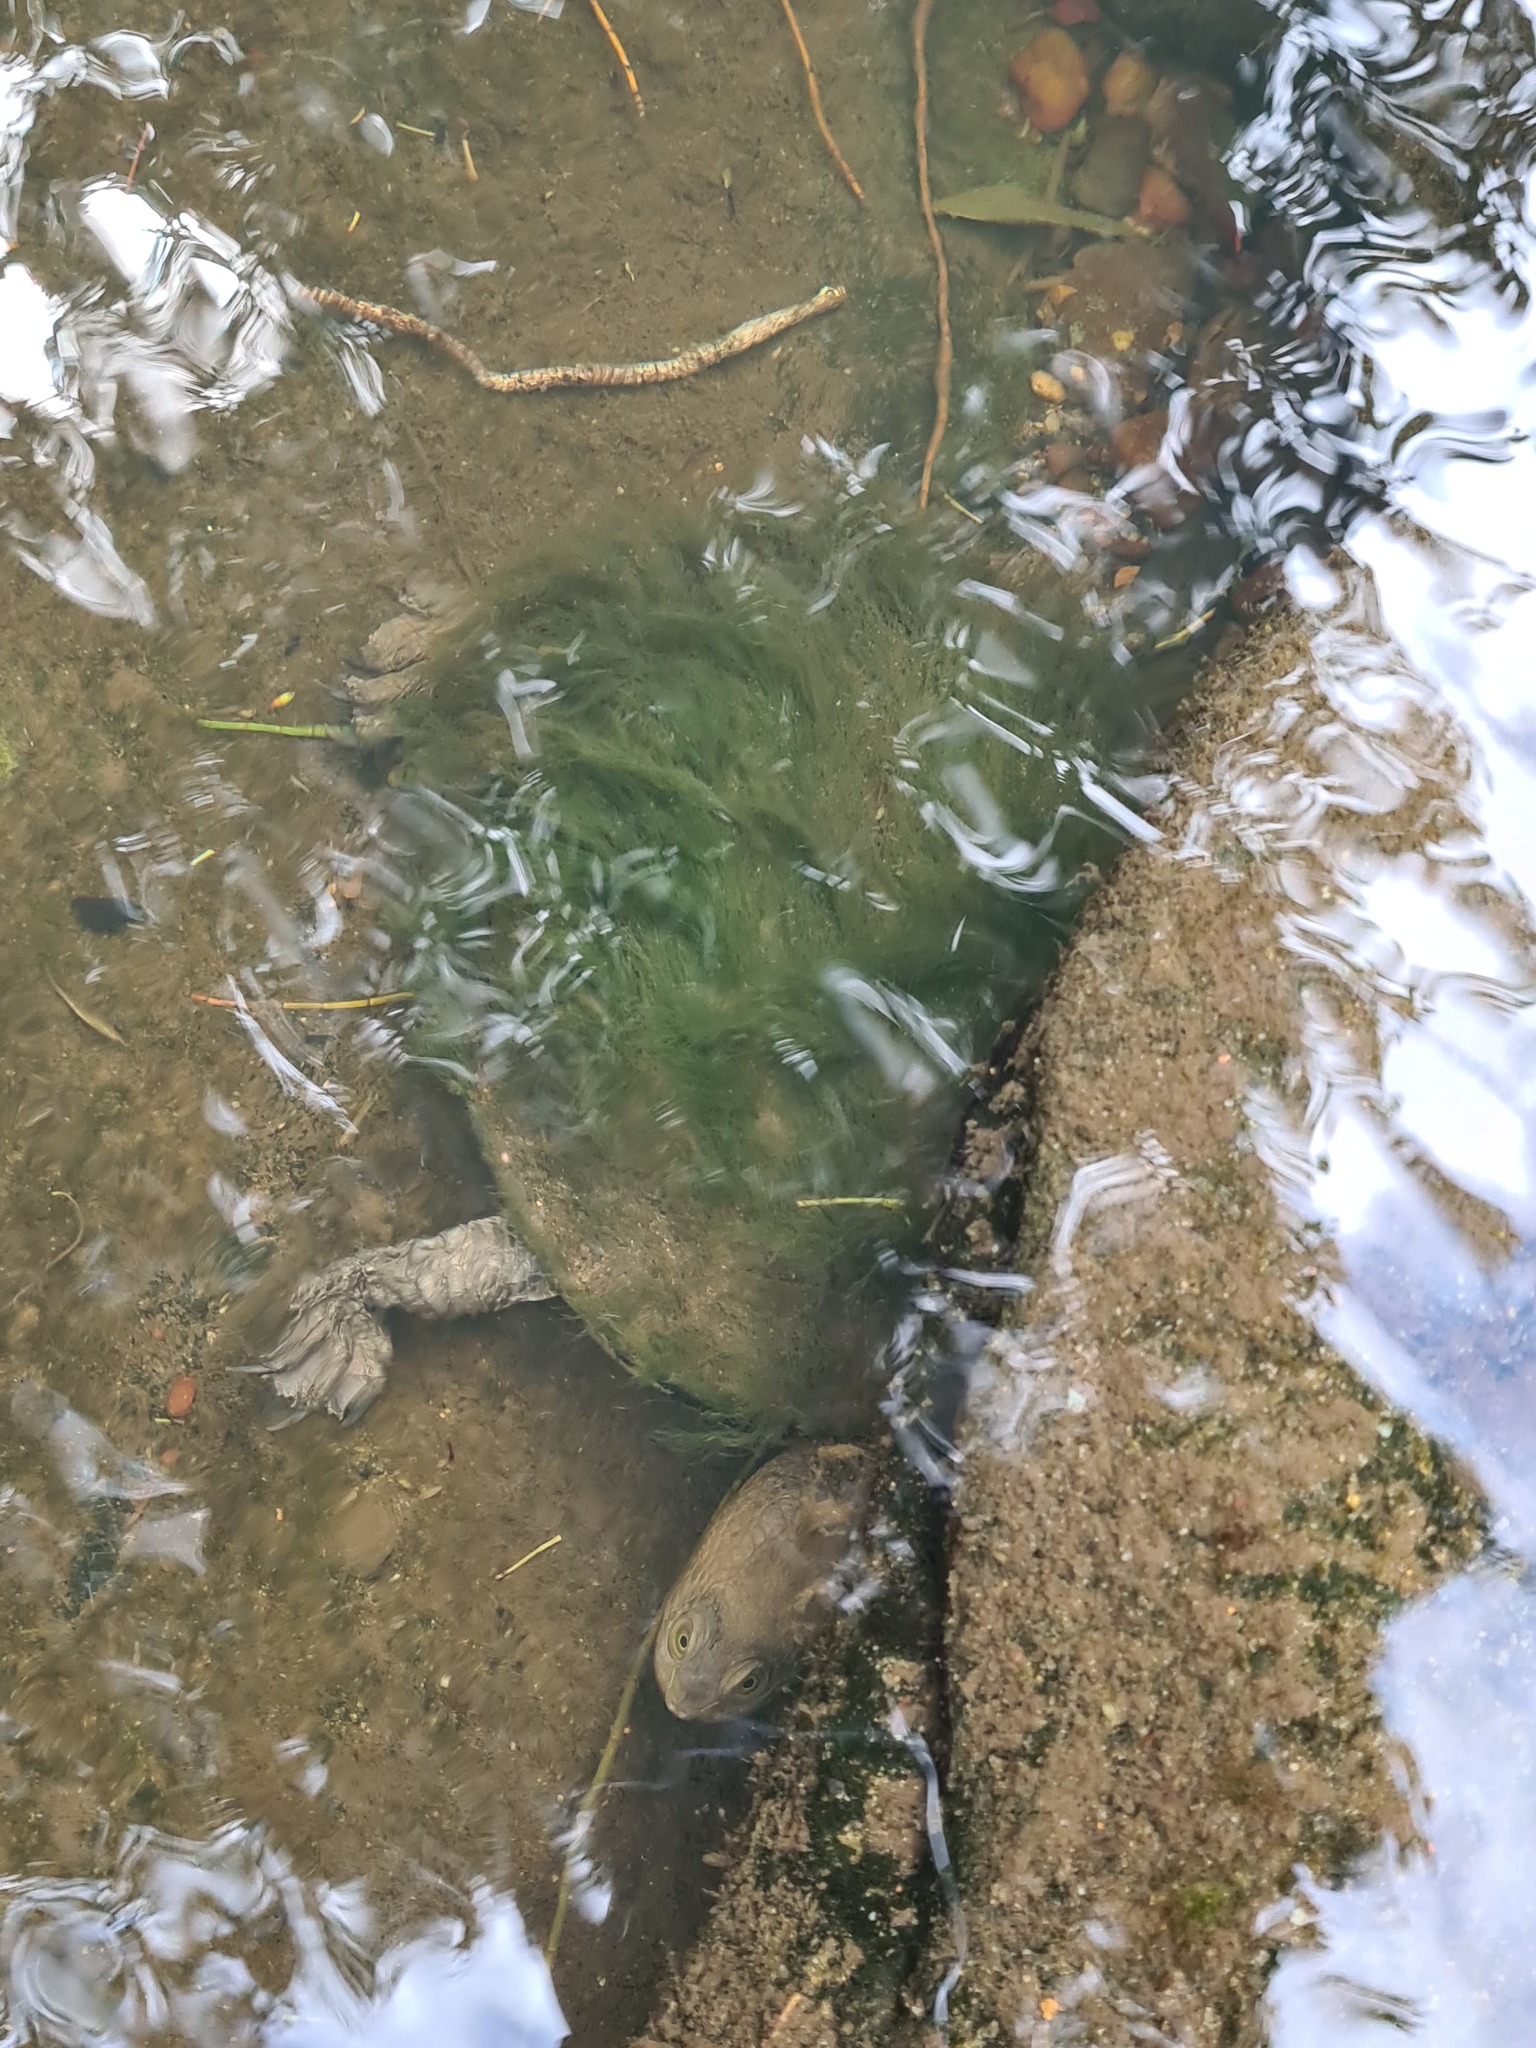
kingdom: Animalia
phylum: Chordata
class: Testudines
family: Chelidae
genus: Chelodina
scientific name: Chelodina longicollis
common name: Eastern snake-necked turtle
